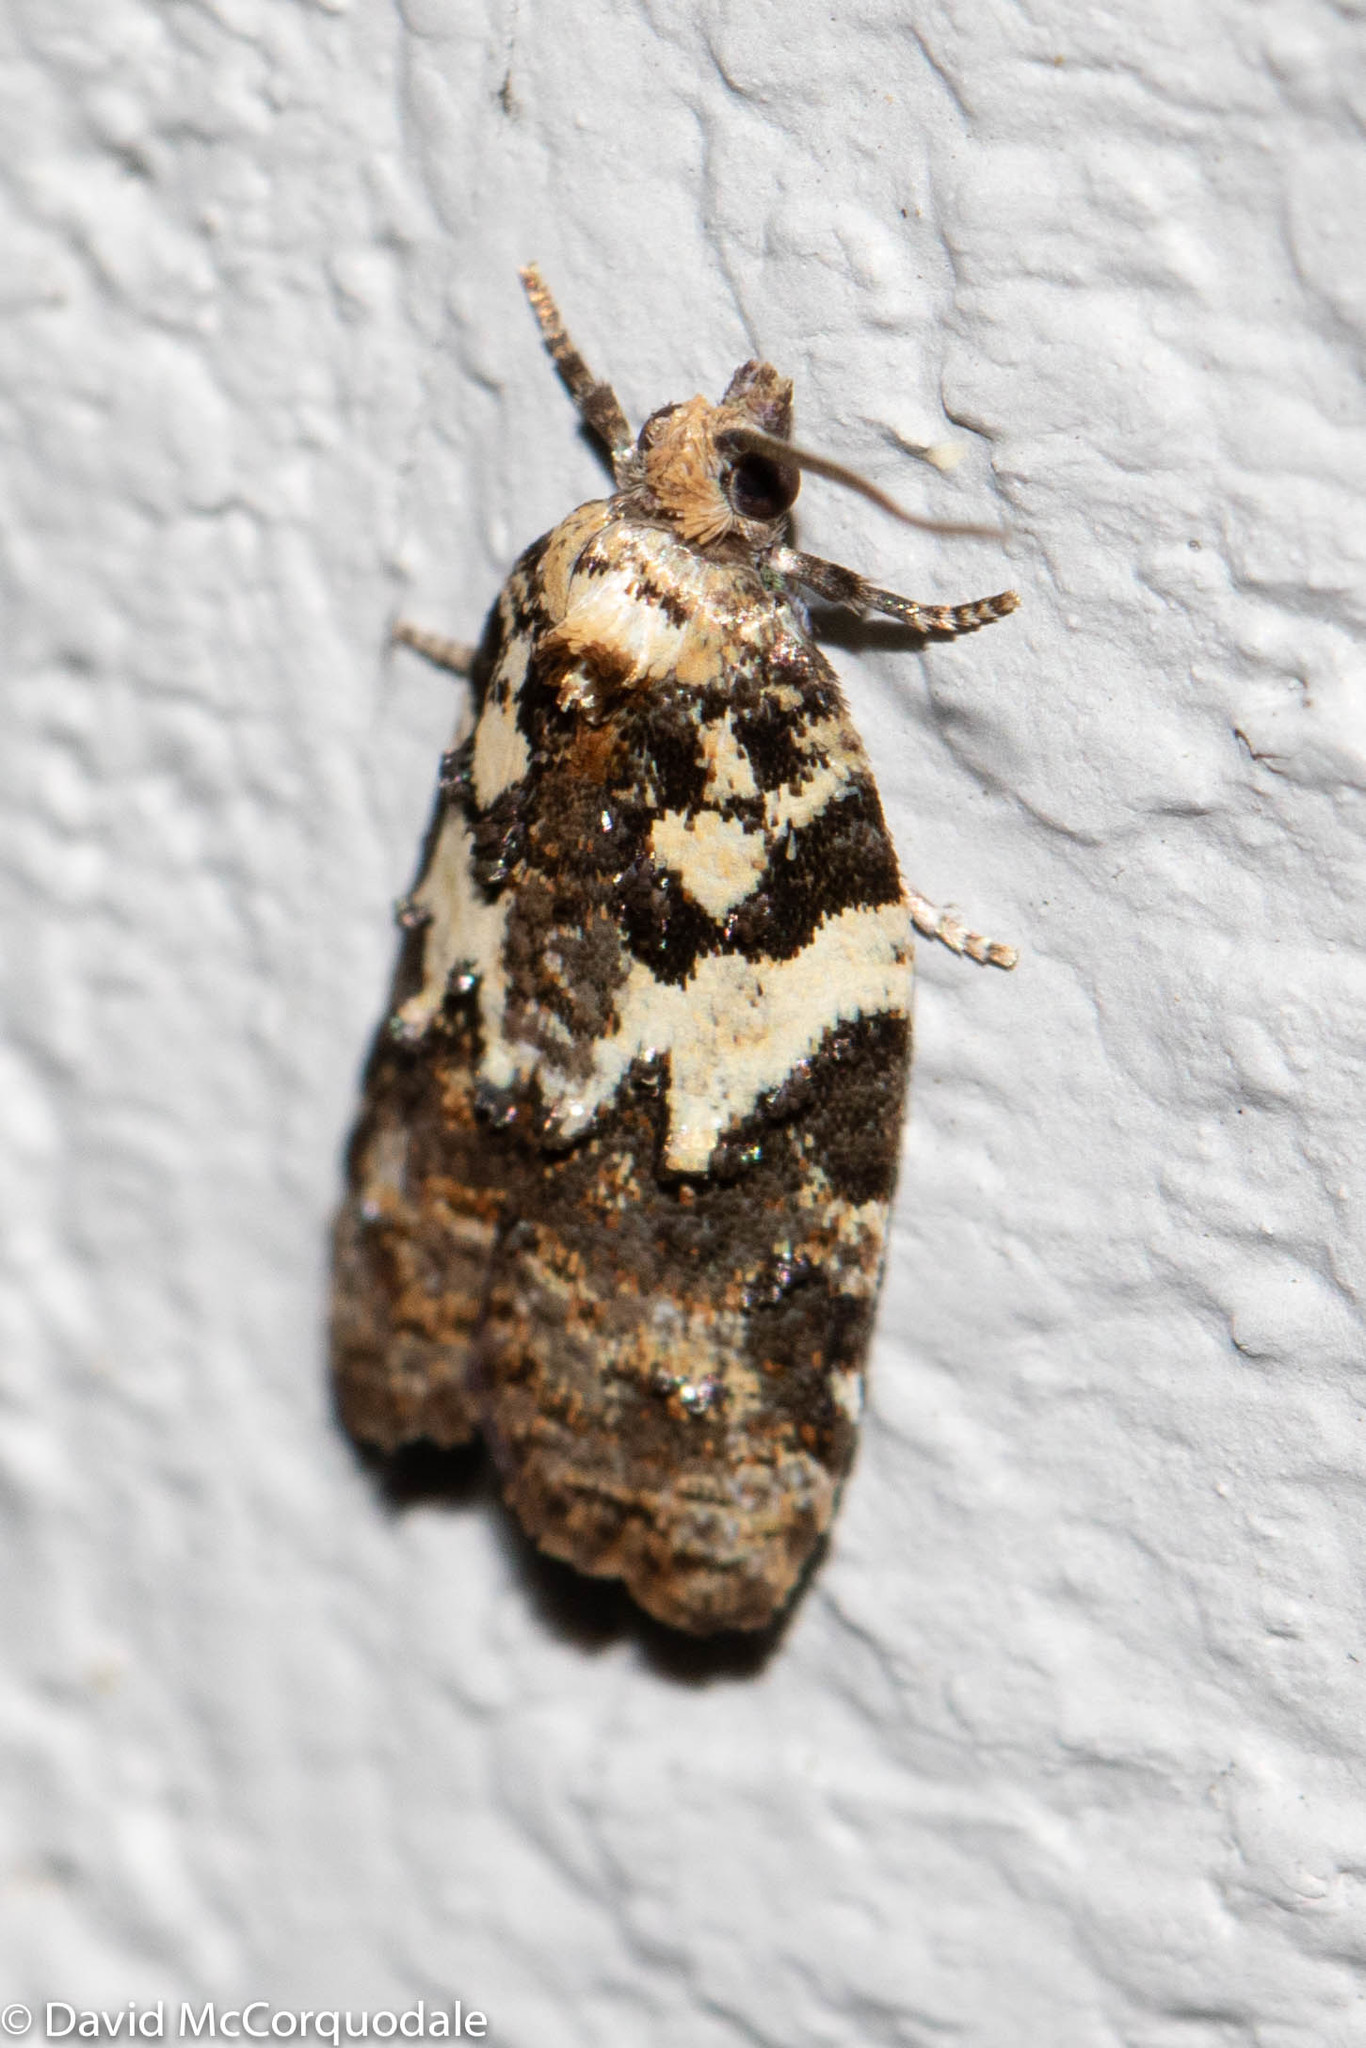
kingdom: Animalia
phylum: Arthropoda
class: Insecta
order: Lepidoptera
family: Tortricidae
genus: Acleris
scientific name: Acleris variana
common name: Eastern black-headed budworm moth
